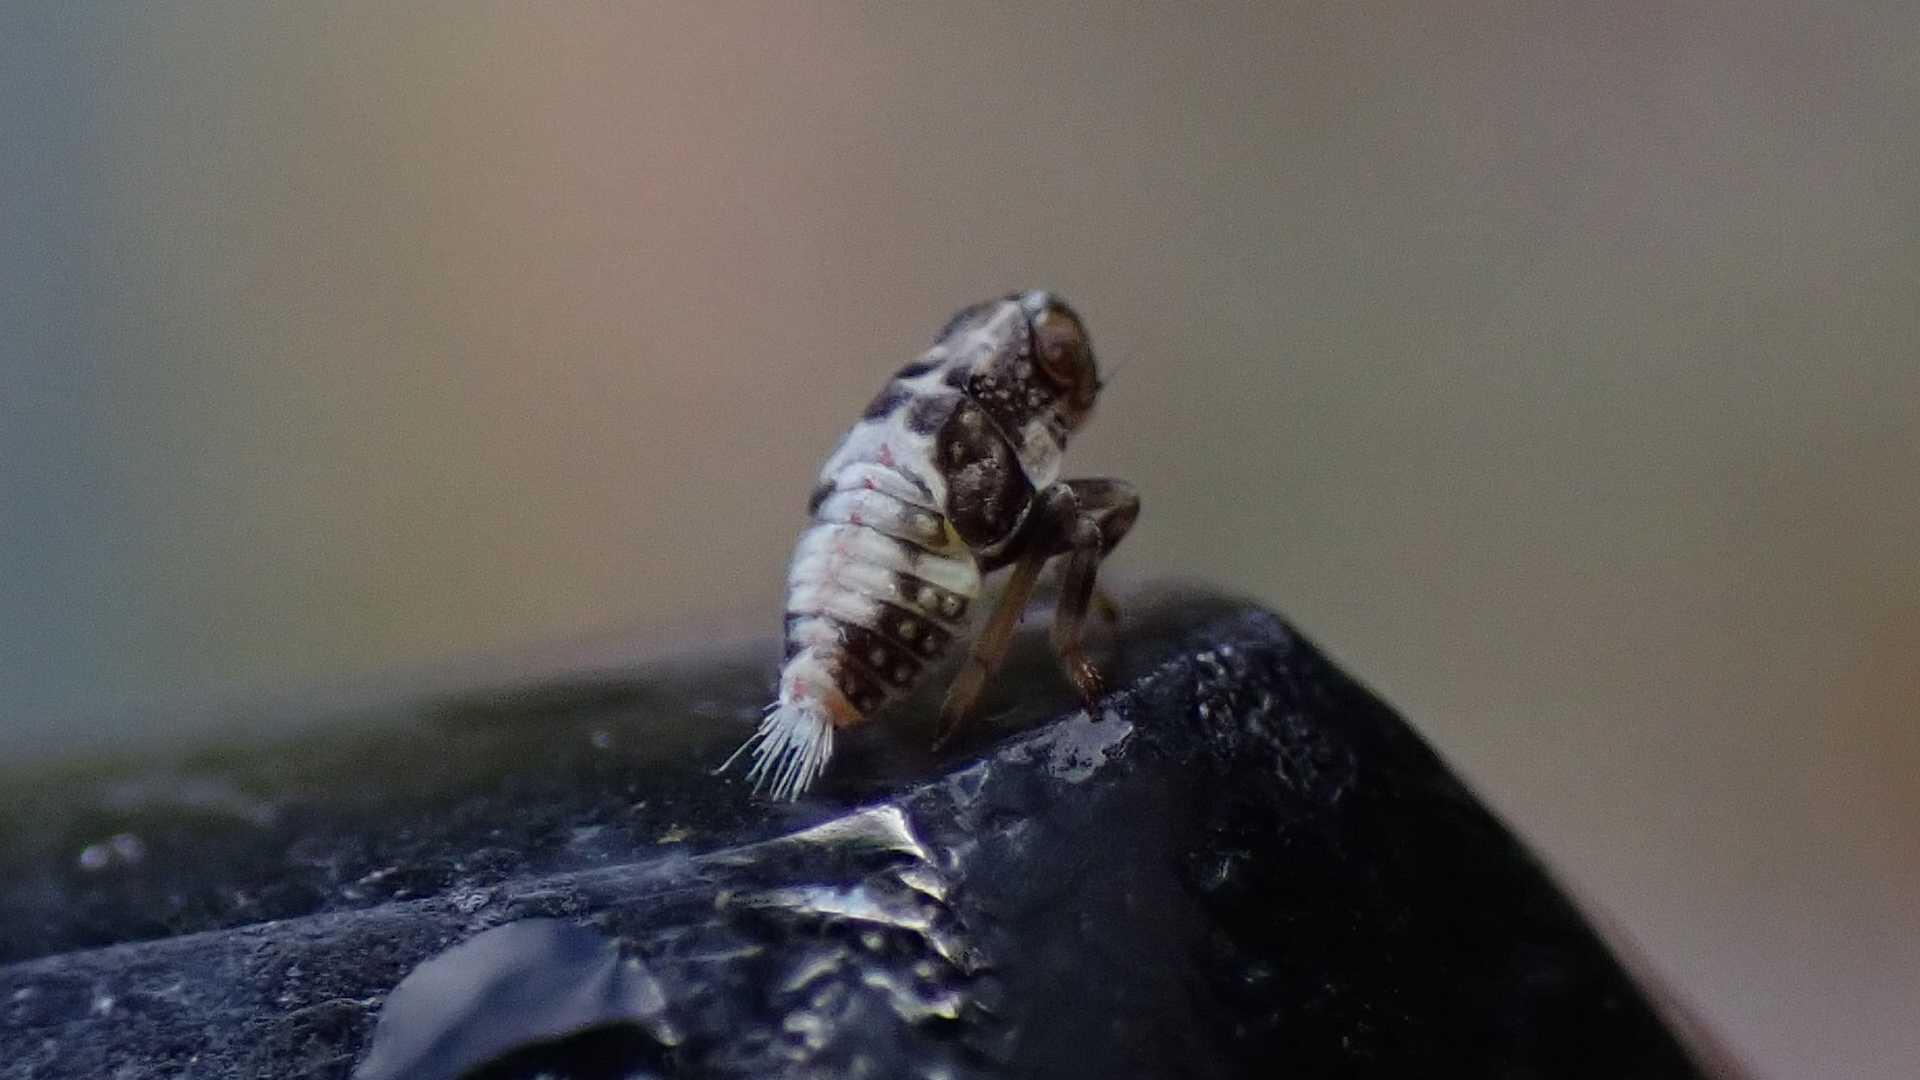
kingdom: Animalia
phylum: Arthropoda
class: Insecta
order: Hemiptera
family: Issidae
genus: Issus
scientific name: Issus
